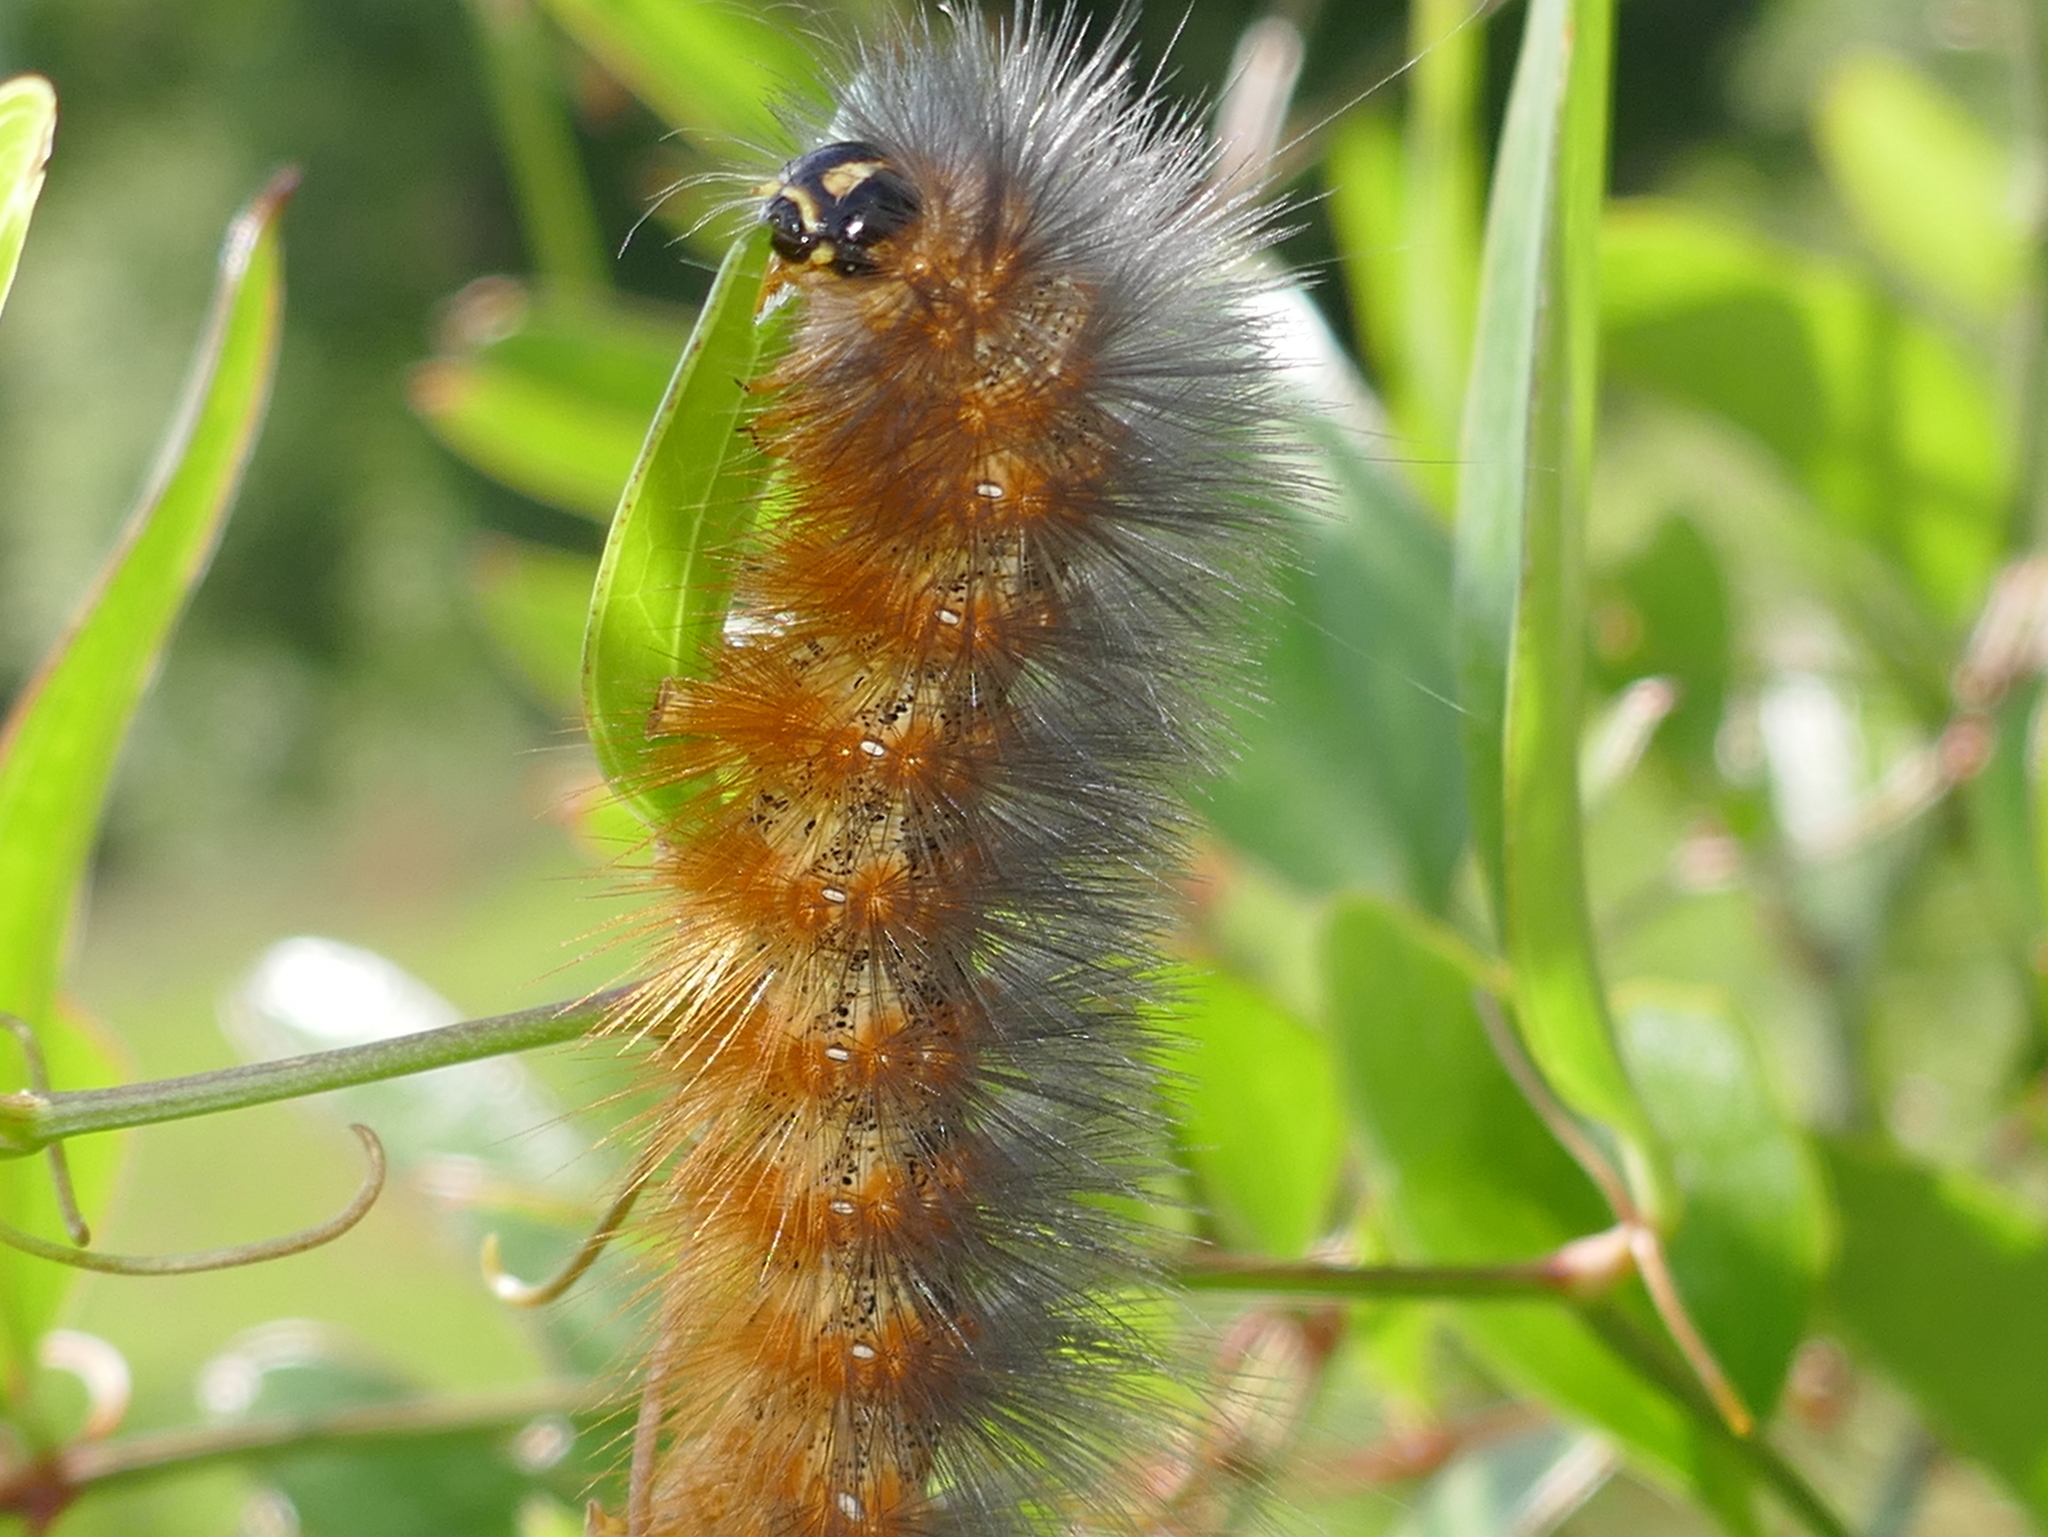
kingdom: Animalia
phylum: Arthropoda
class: Insecta
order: Lepidoptera
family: Erebidae
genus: Estigmene
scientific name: Estigmene acrea
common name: Salt marsh moth
